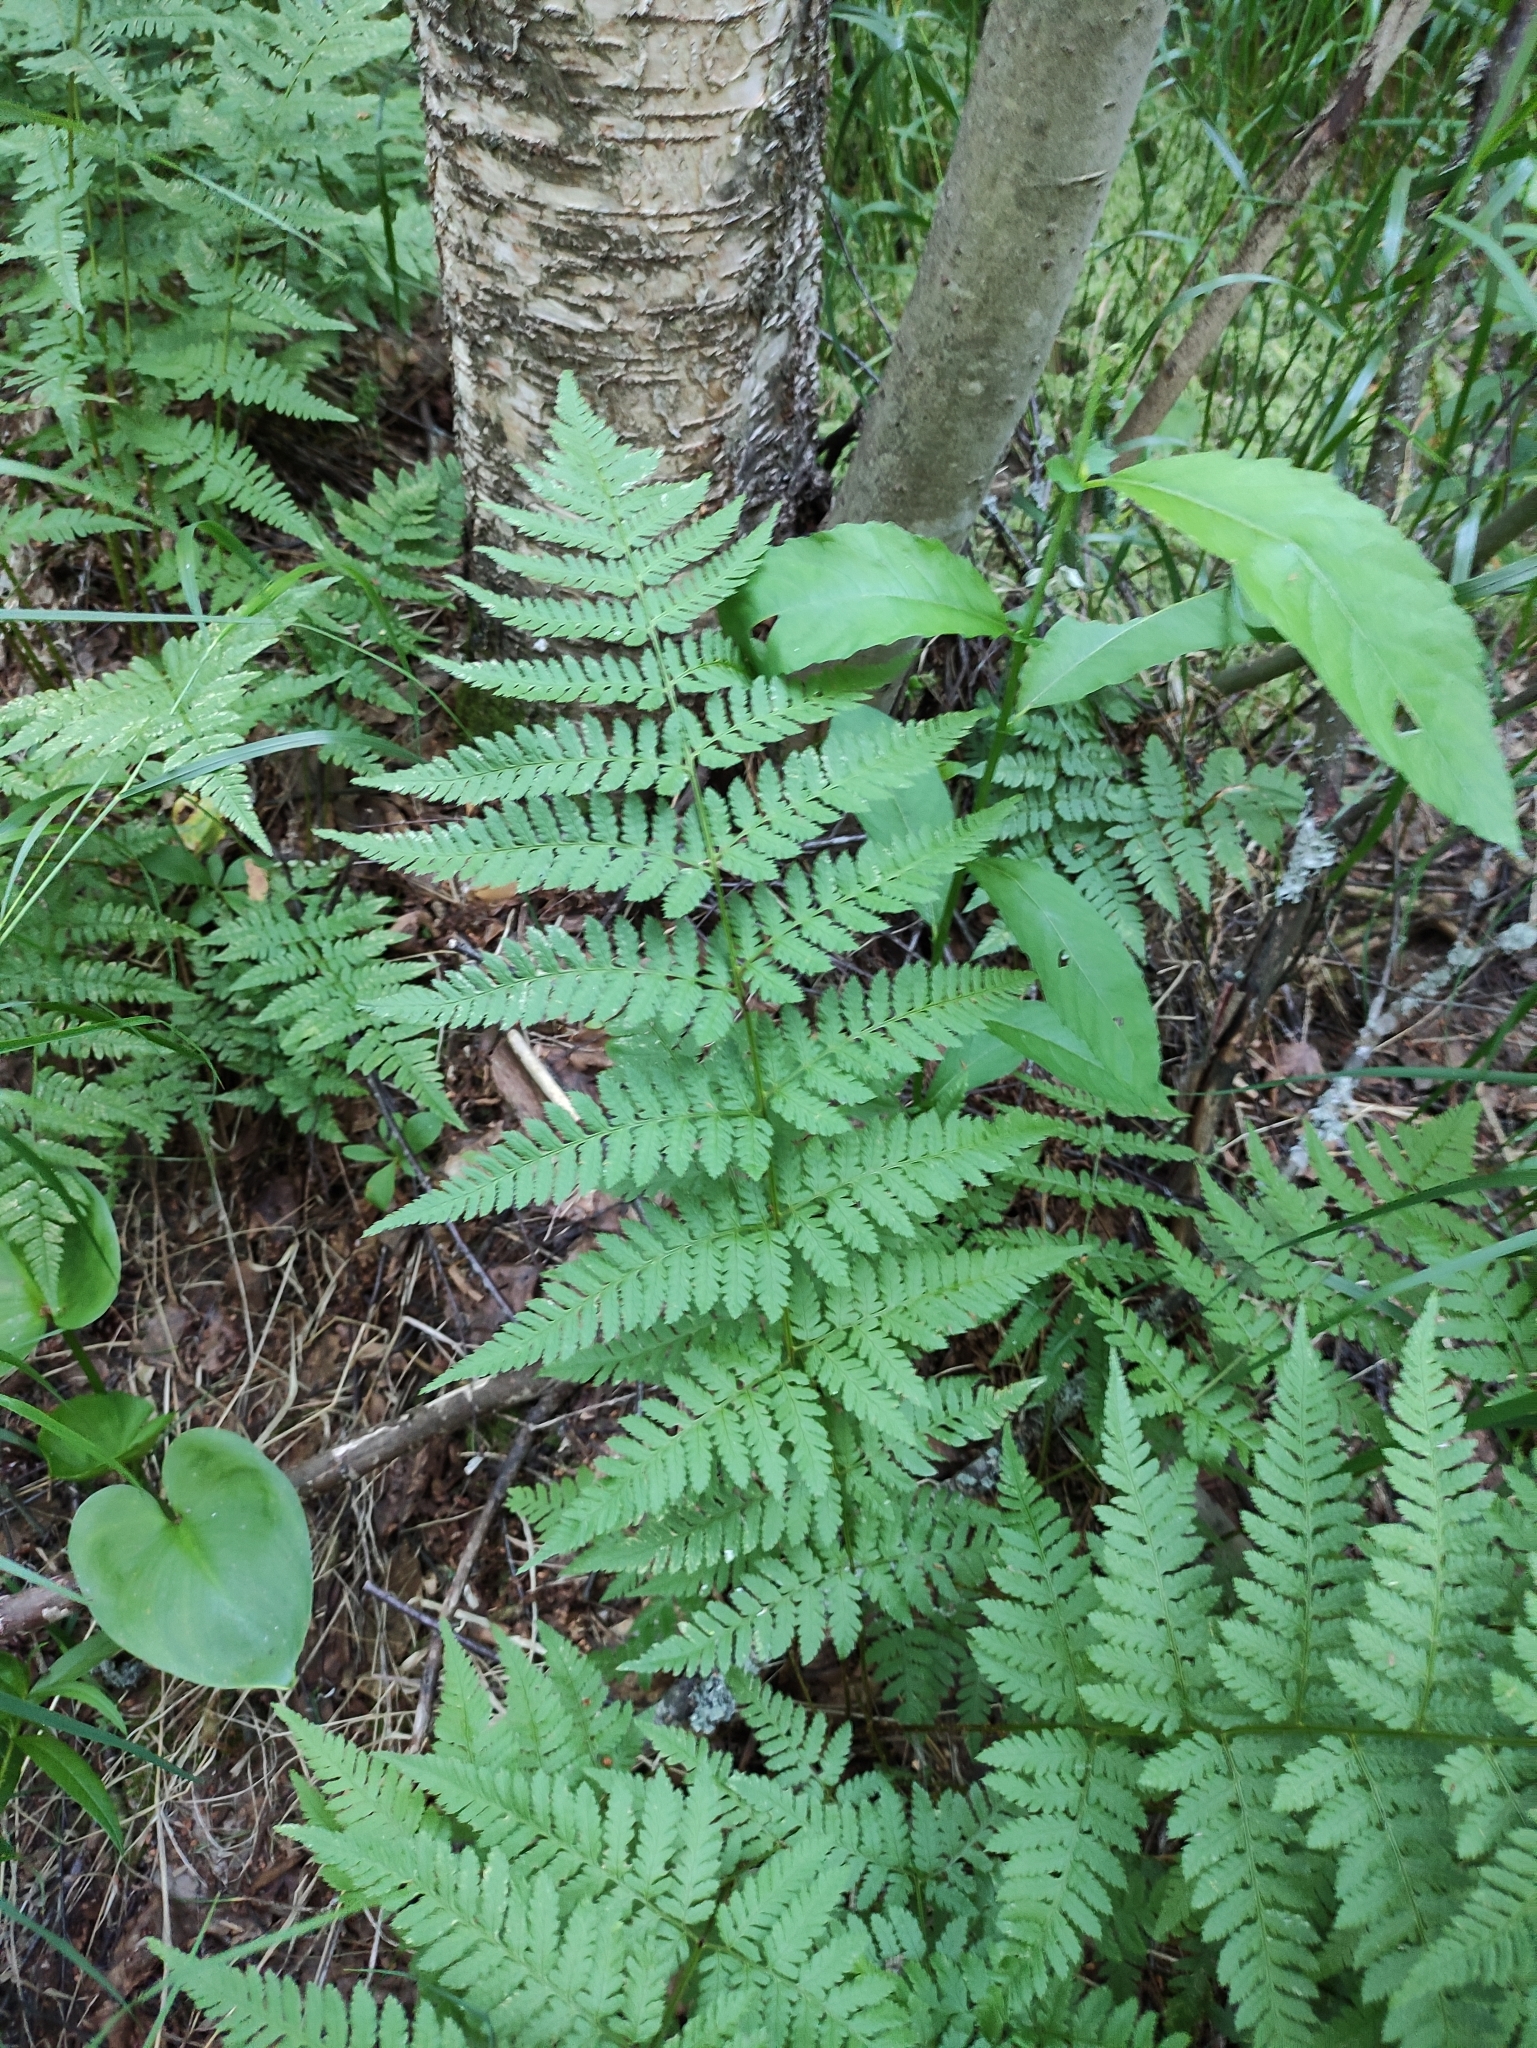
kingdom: Plantae
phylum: Tracheophyta
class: Polypodiopsida
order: Polypodiales
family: Dryopteridaceae
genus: Dryopteris
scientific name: Dryopteris carthusiana
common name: Narrow buckler-fern
